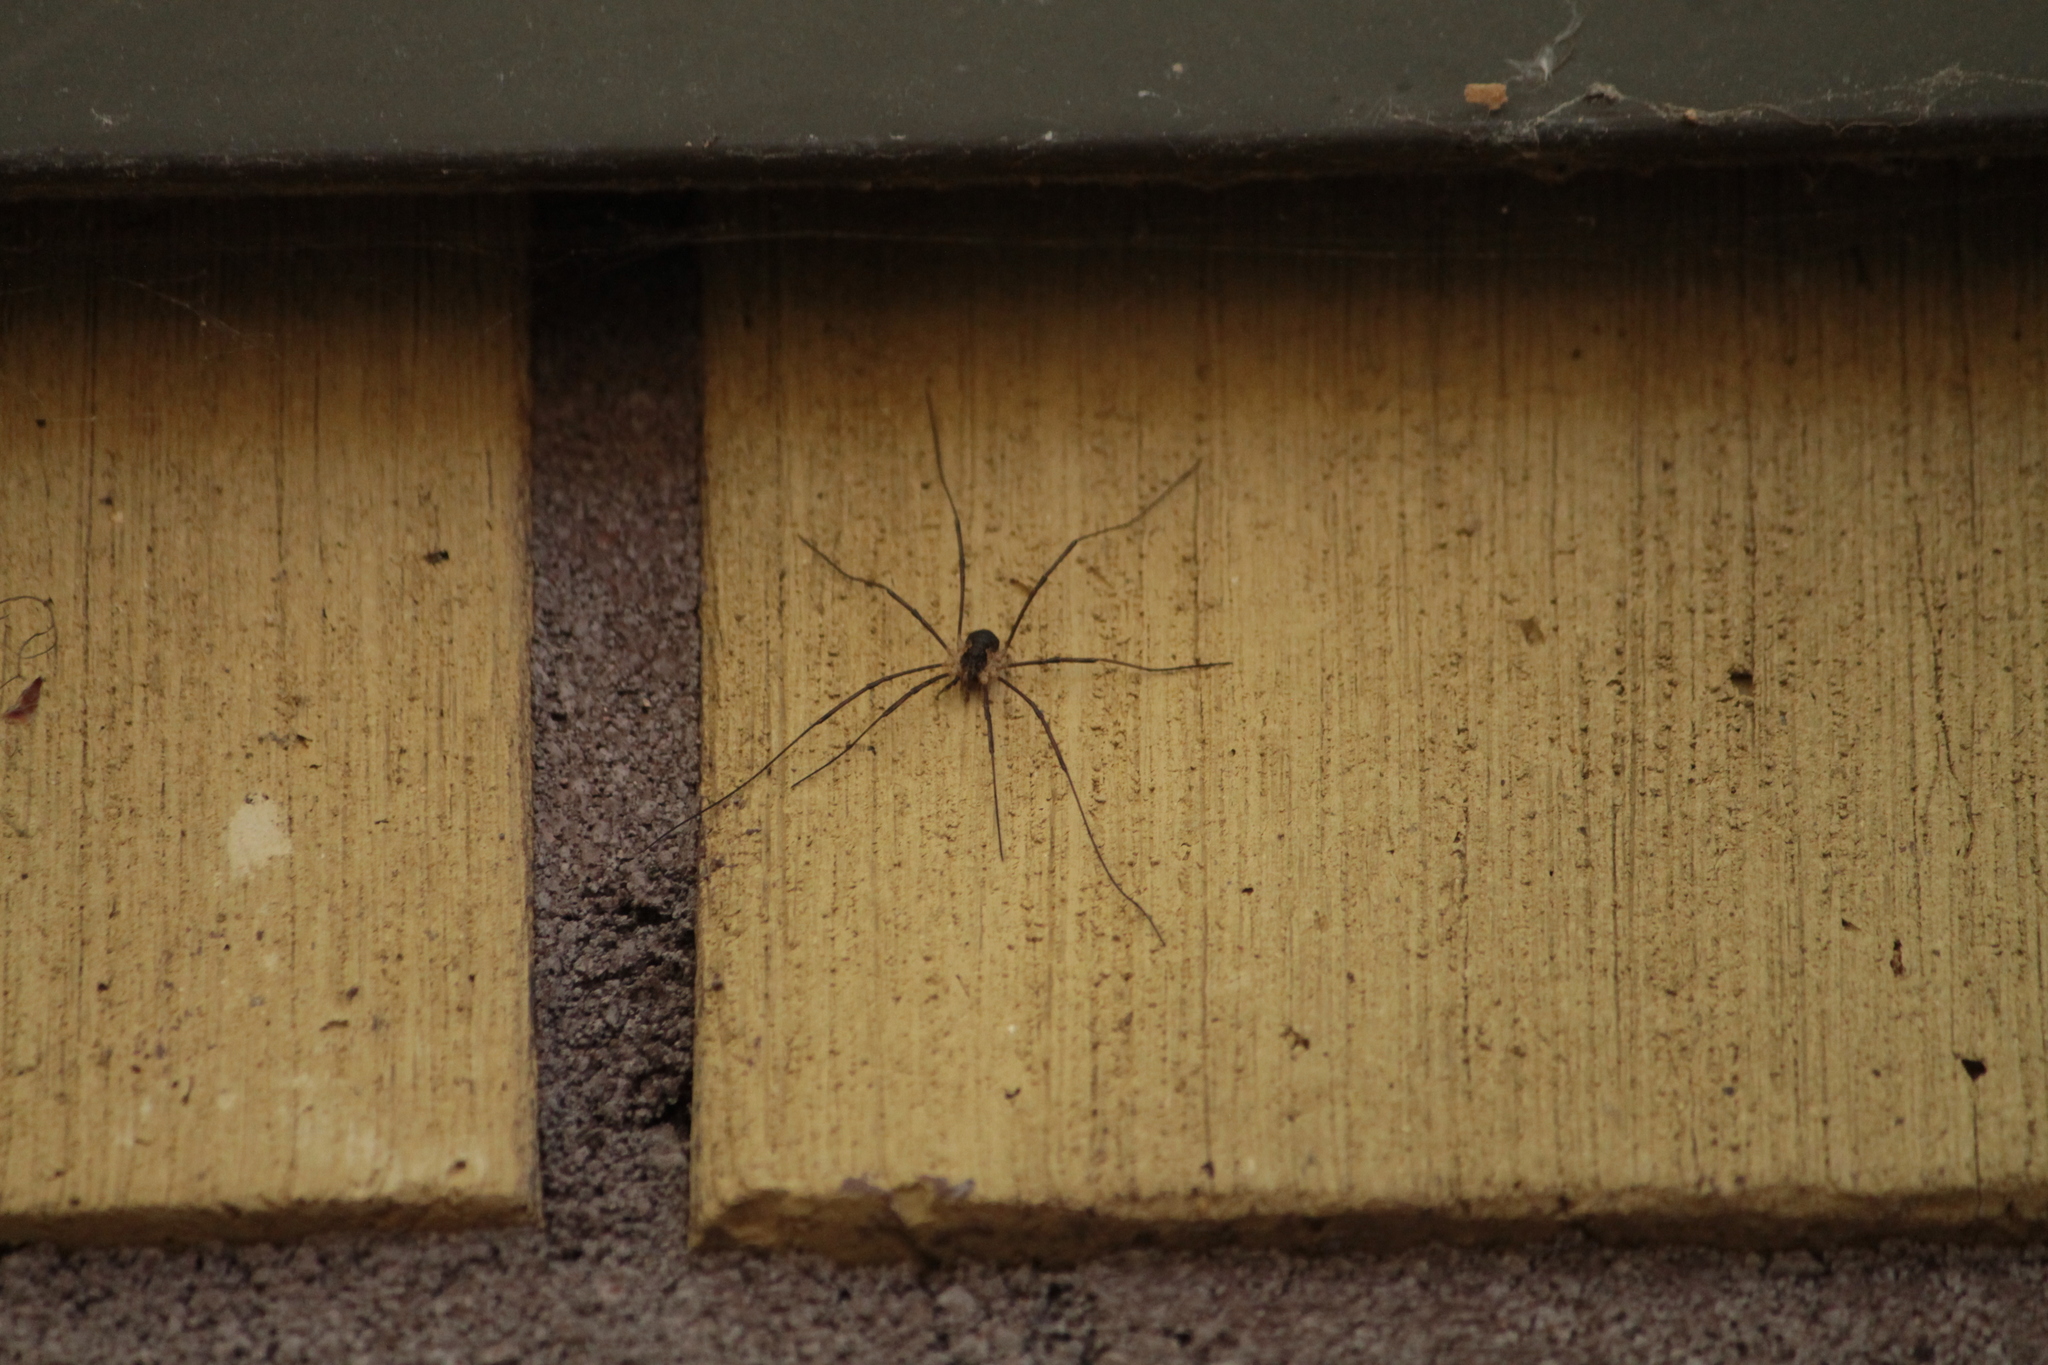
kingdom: Animalia
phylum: Arthropoda
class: Arachnida
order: Opiliones
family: Phalangiidae
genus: Mitopus
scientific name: Mitopus morio
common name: Saddleback harvestman
